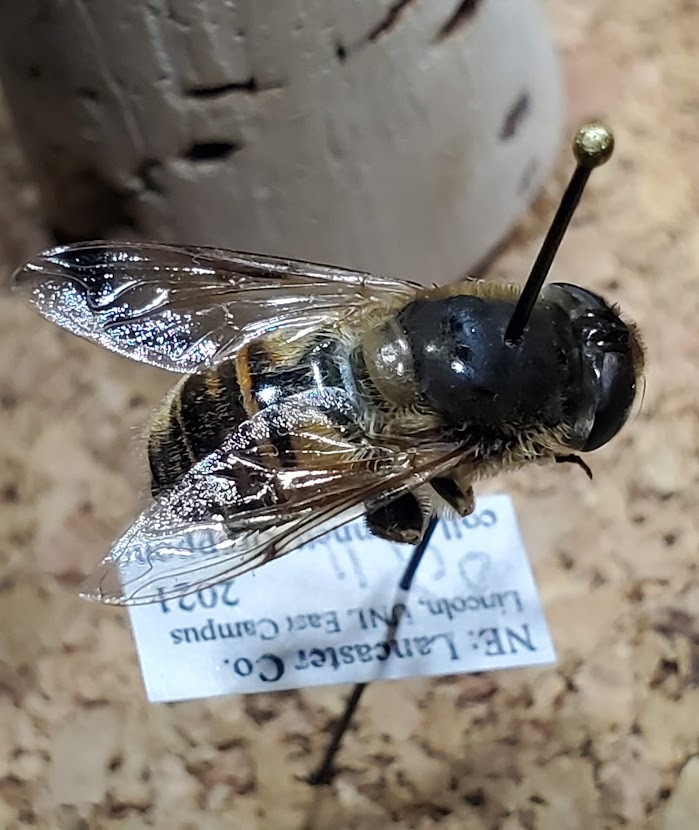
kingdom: Animalia
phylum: Arthropoda
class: Insecta
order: Diptera
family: Syrphidae
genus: Eristalis
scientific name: Eristalis tenax
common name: Drone fly
